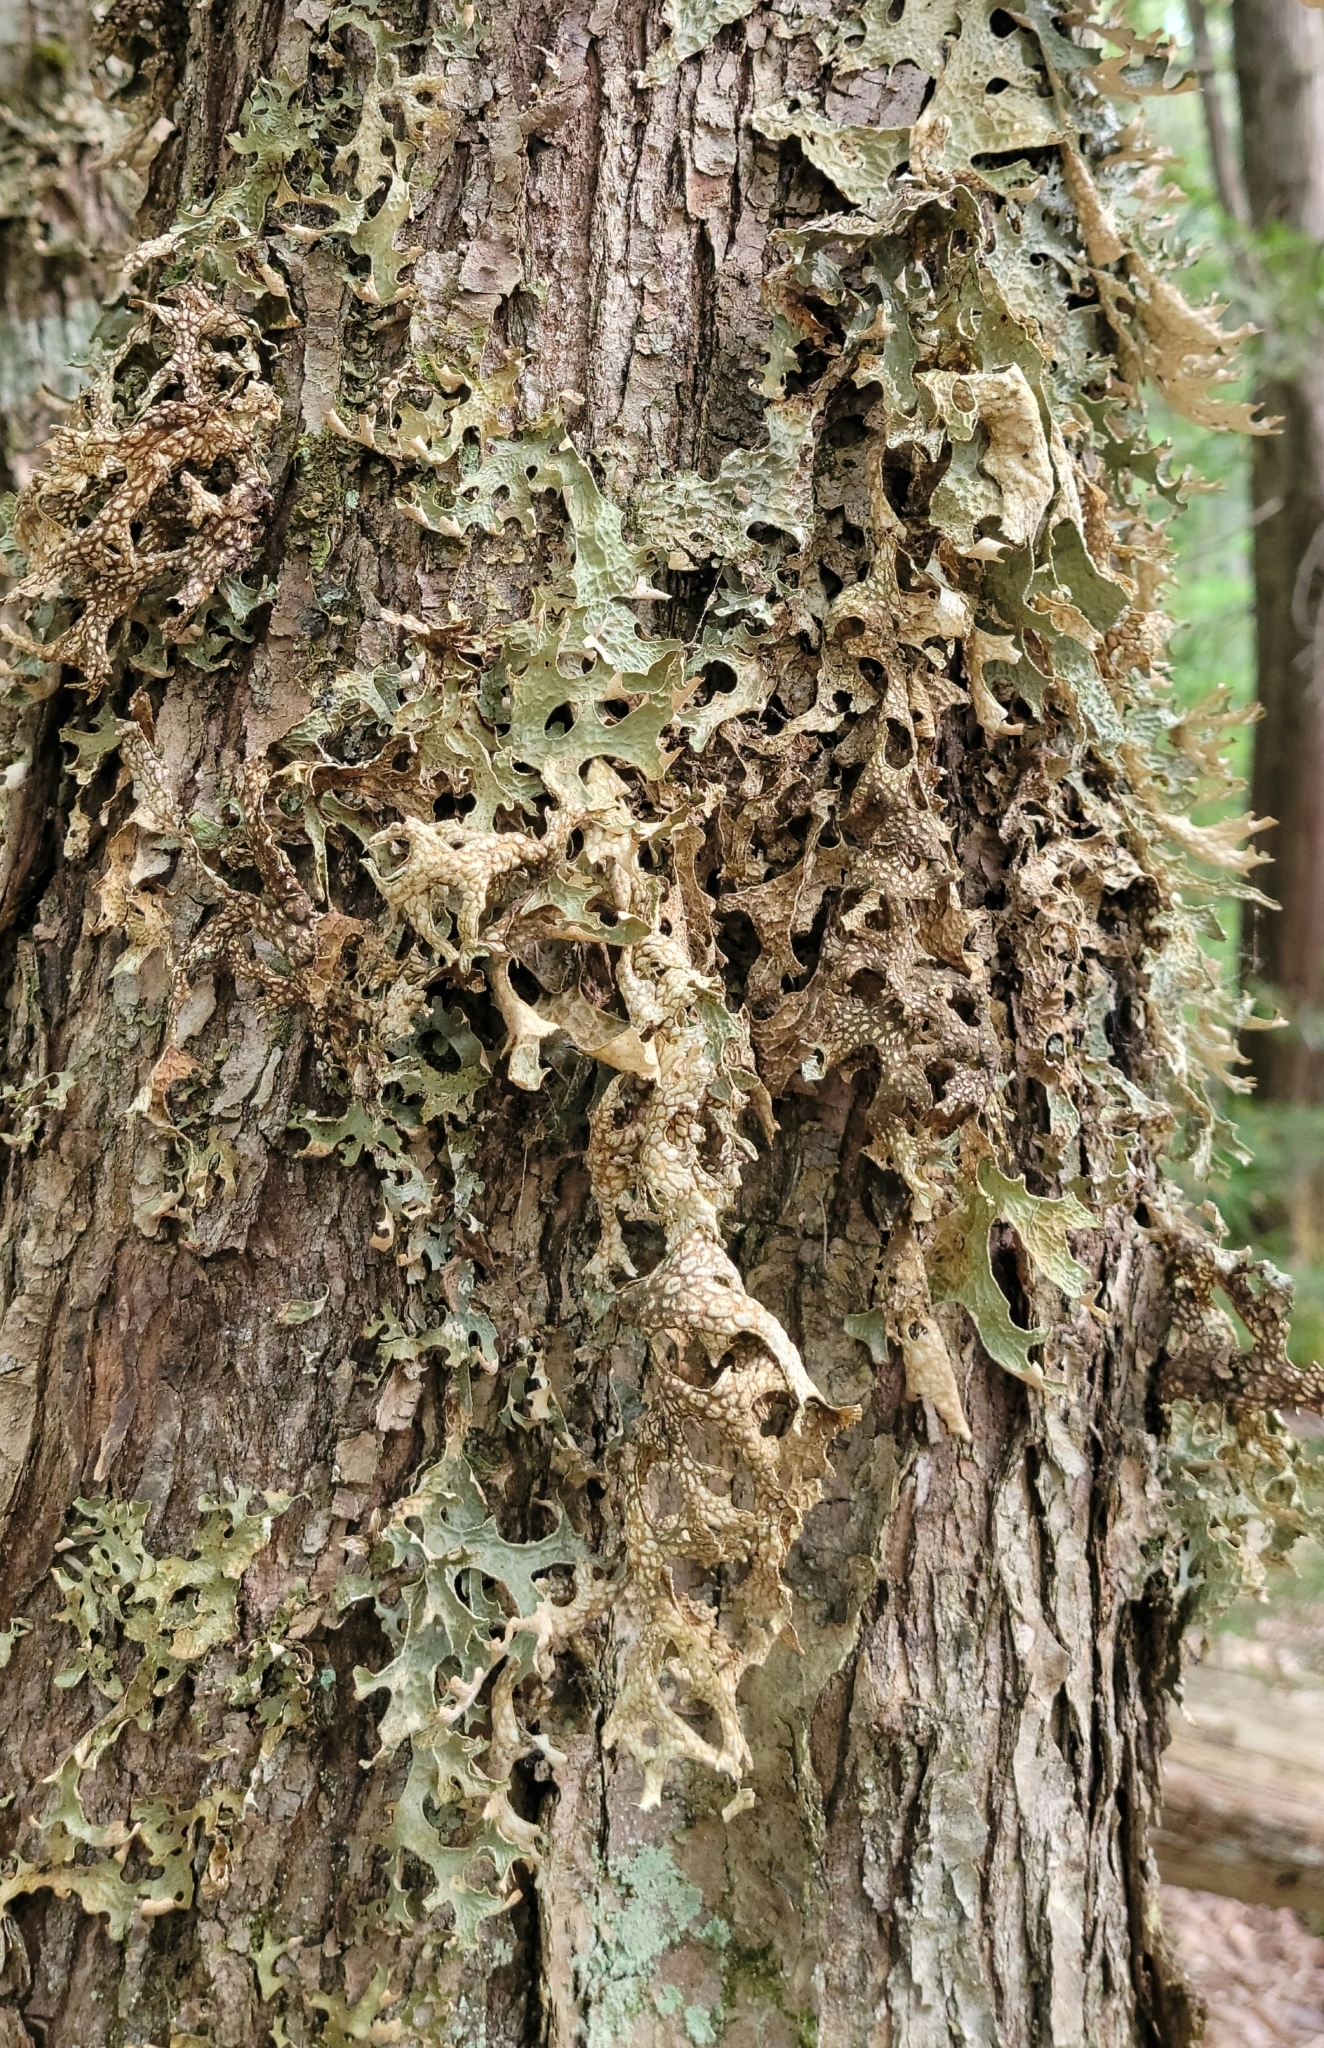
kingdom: Fungi
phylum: Ascomycota
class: Lecanoromycetes
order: Peltigerales
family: Lobariaceae
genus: Lobaria
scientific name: Lobaria pulmonaria
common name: Lungwort
